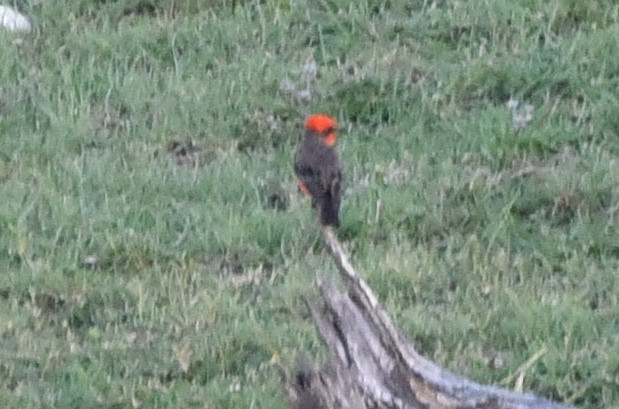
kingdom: Animalia
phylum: Chordata
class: Aves
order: Passeriformes
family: Tyrannidae
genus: Pyrocephalus
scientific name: Pyrocephalus rubinus
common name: Vermilion flycatcher
